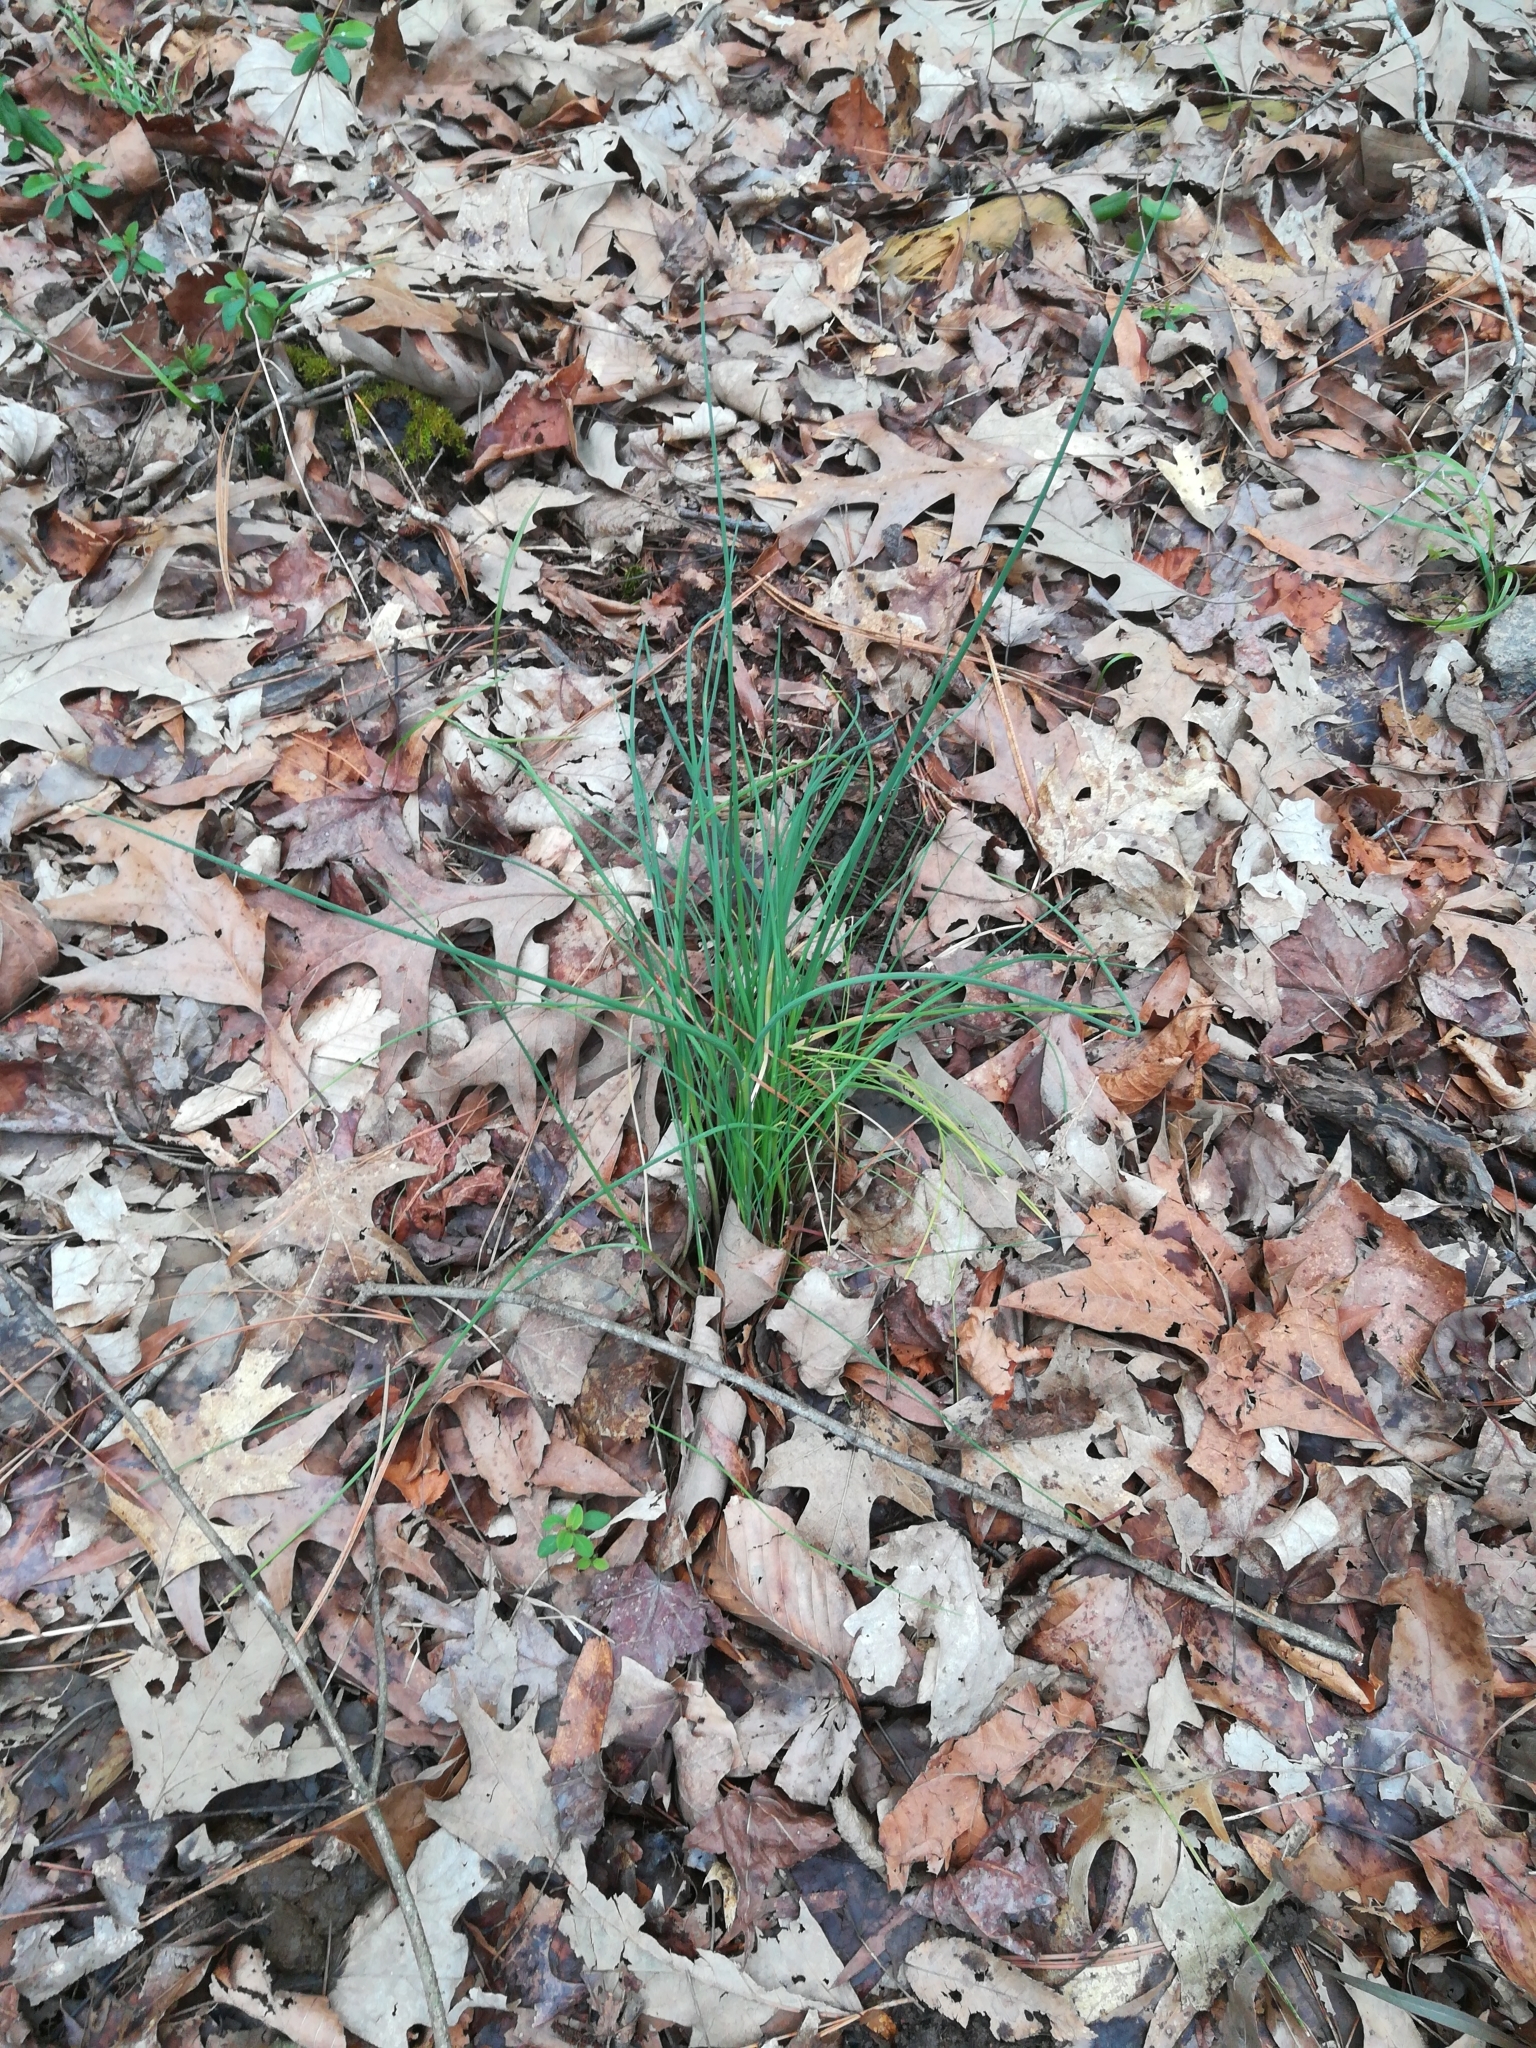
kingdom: Plantae
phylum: Tracheophyta
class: Liliopsida
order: Asparagales
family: Amaryllidaceae
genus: Allium
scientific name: Allium vineale
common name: Crow garlic
